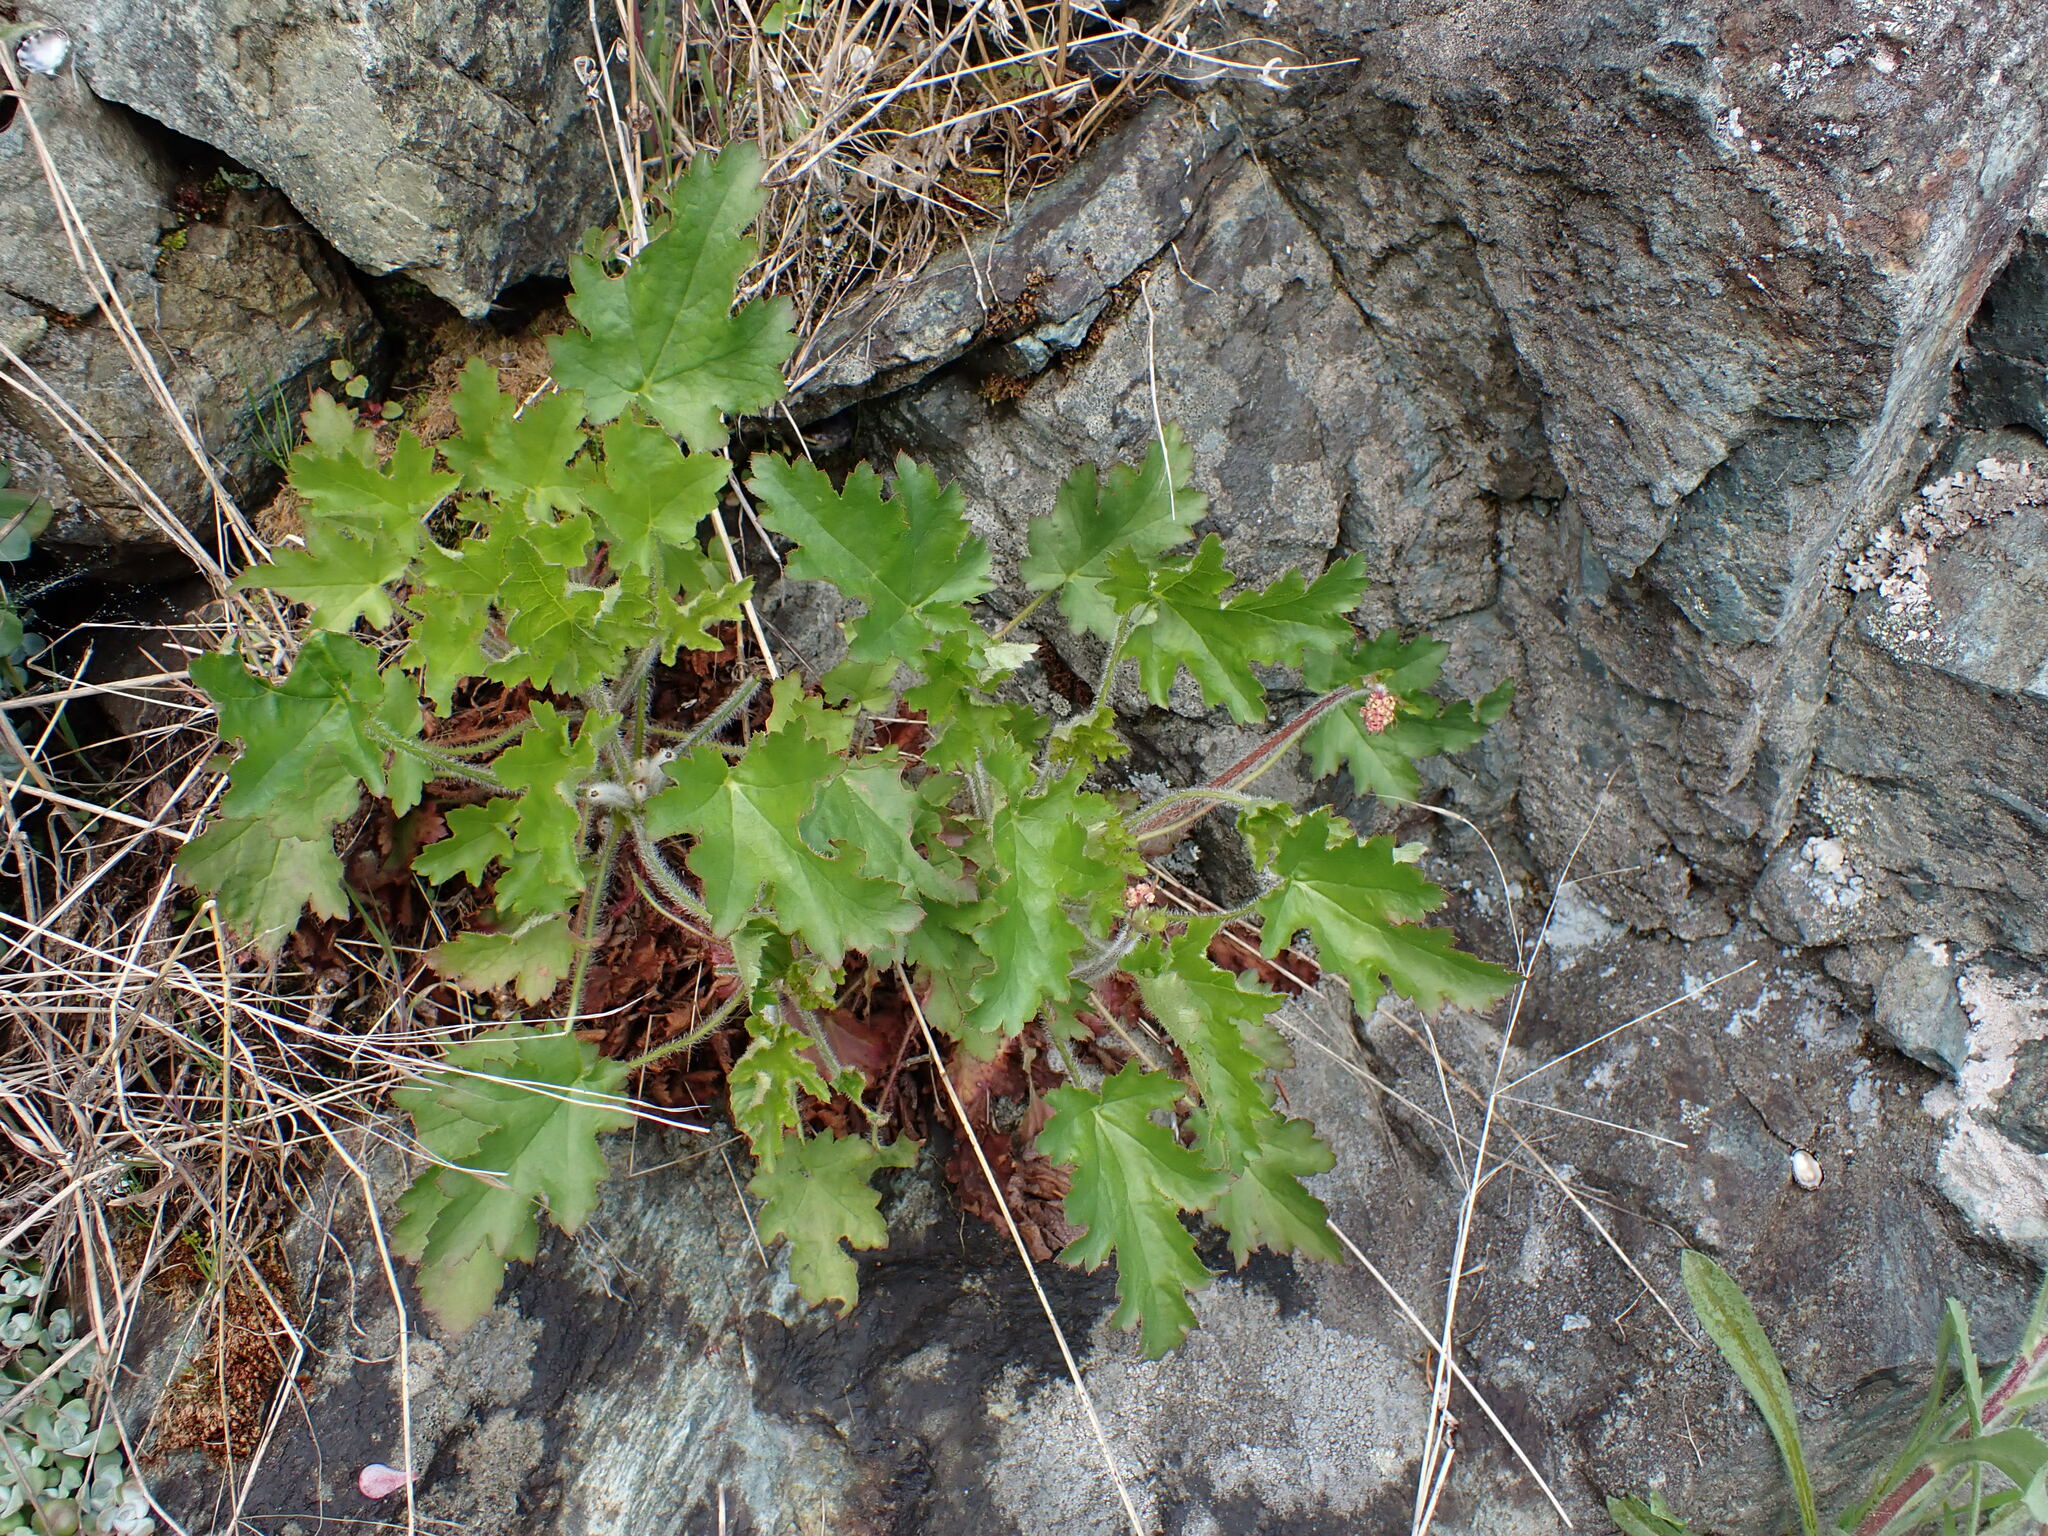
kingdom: Plantae
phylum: Tracheophyta
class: Magnoliopsida
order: Saxifragales
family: Saxifragaceae
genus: Heuchera
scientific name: Heuchera micrantha
